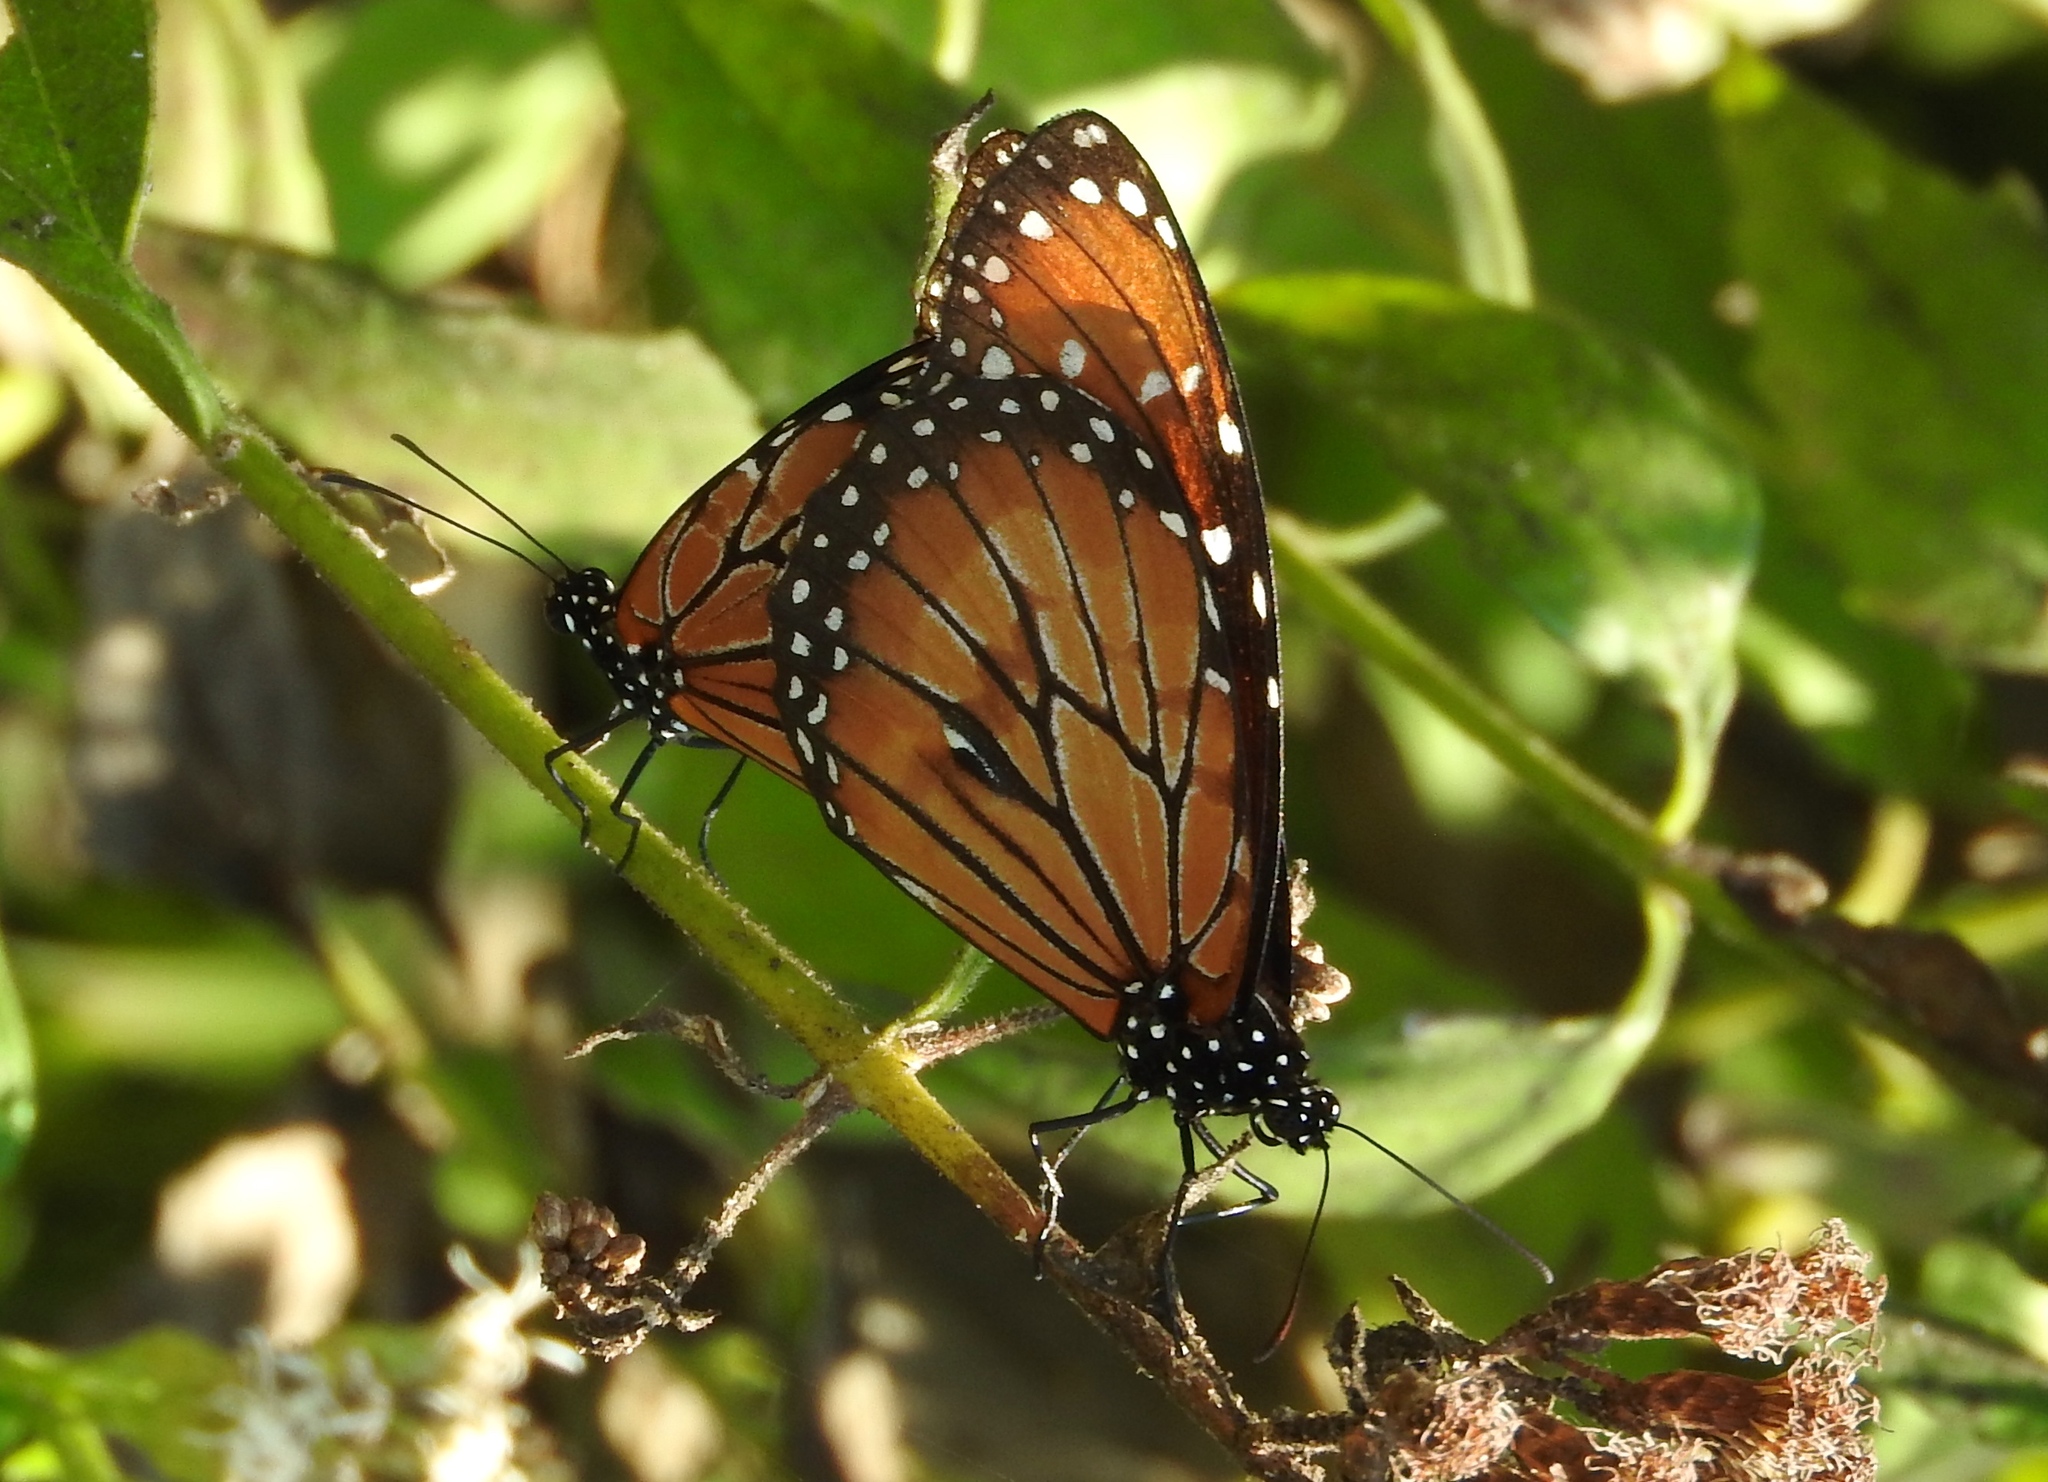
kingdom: Animalia
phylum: Arthropoda
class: Insecta
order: Lepidoptera
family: Nymphalidae
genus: Danaus
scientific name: Danaus eresimus
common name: Soldier
